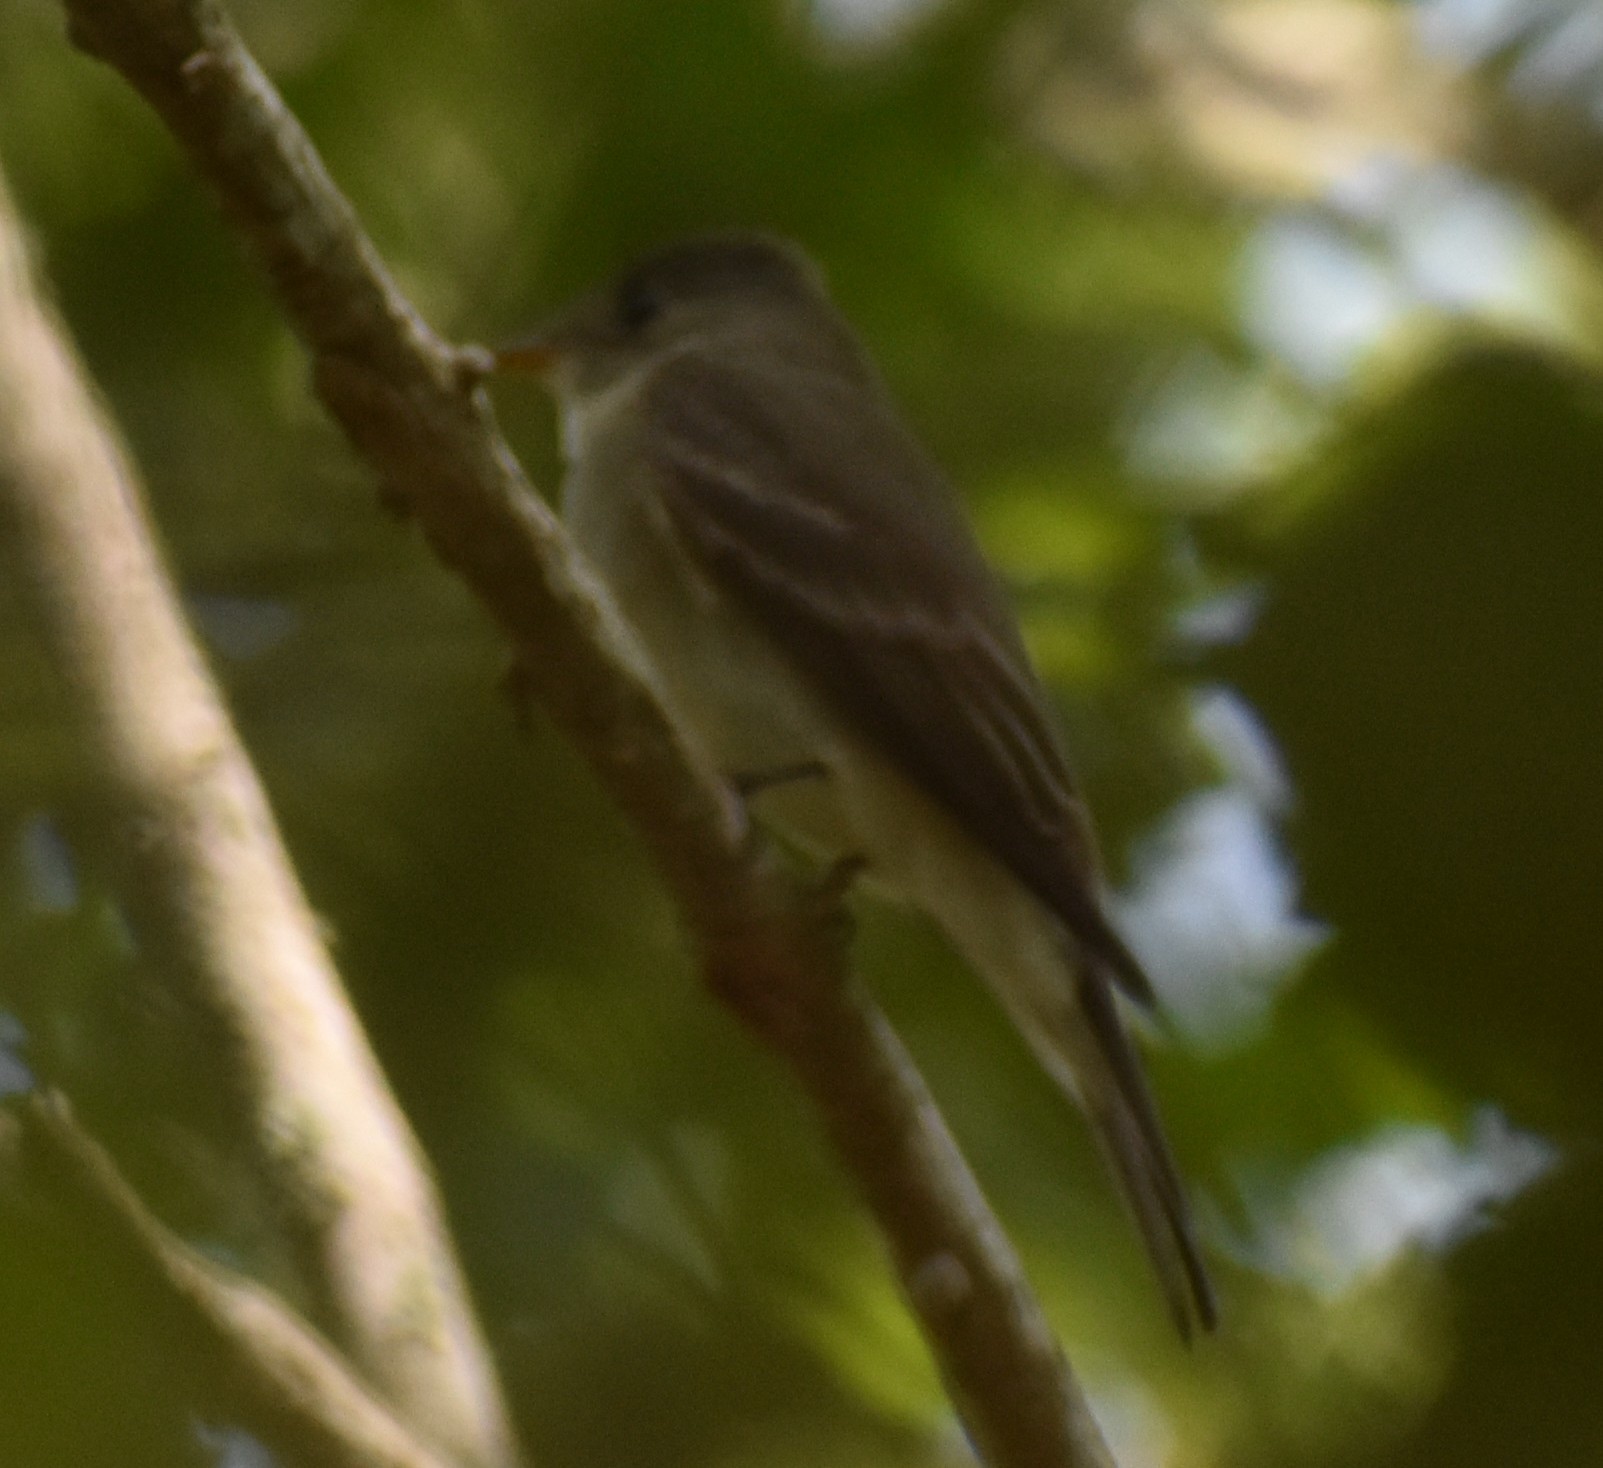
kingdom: Animalia
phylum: Chordata
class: Aves
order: Passeriformes
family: Tyrannidae
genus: Contopus
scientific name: Contopus virens
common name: Eastern wood-pewee
